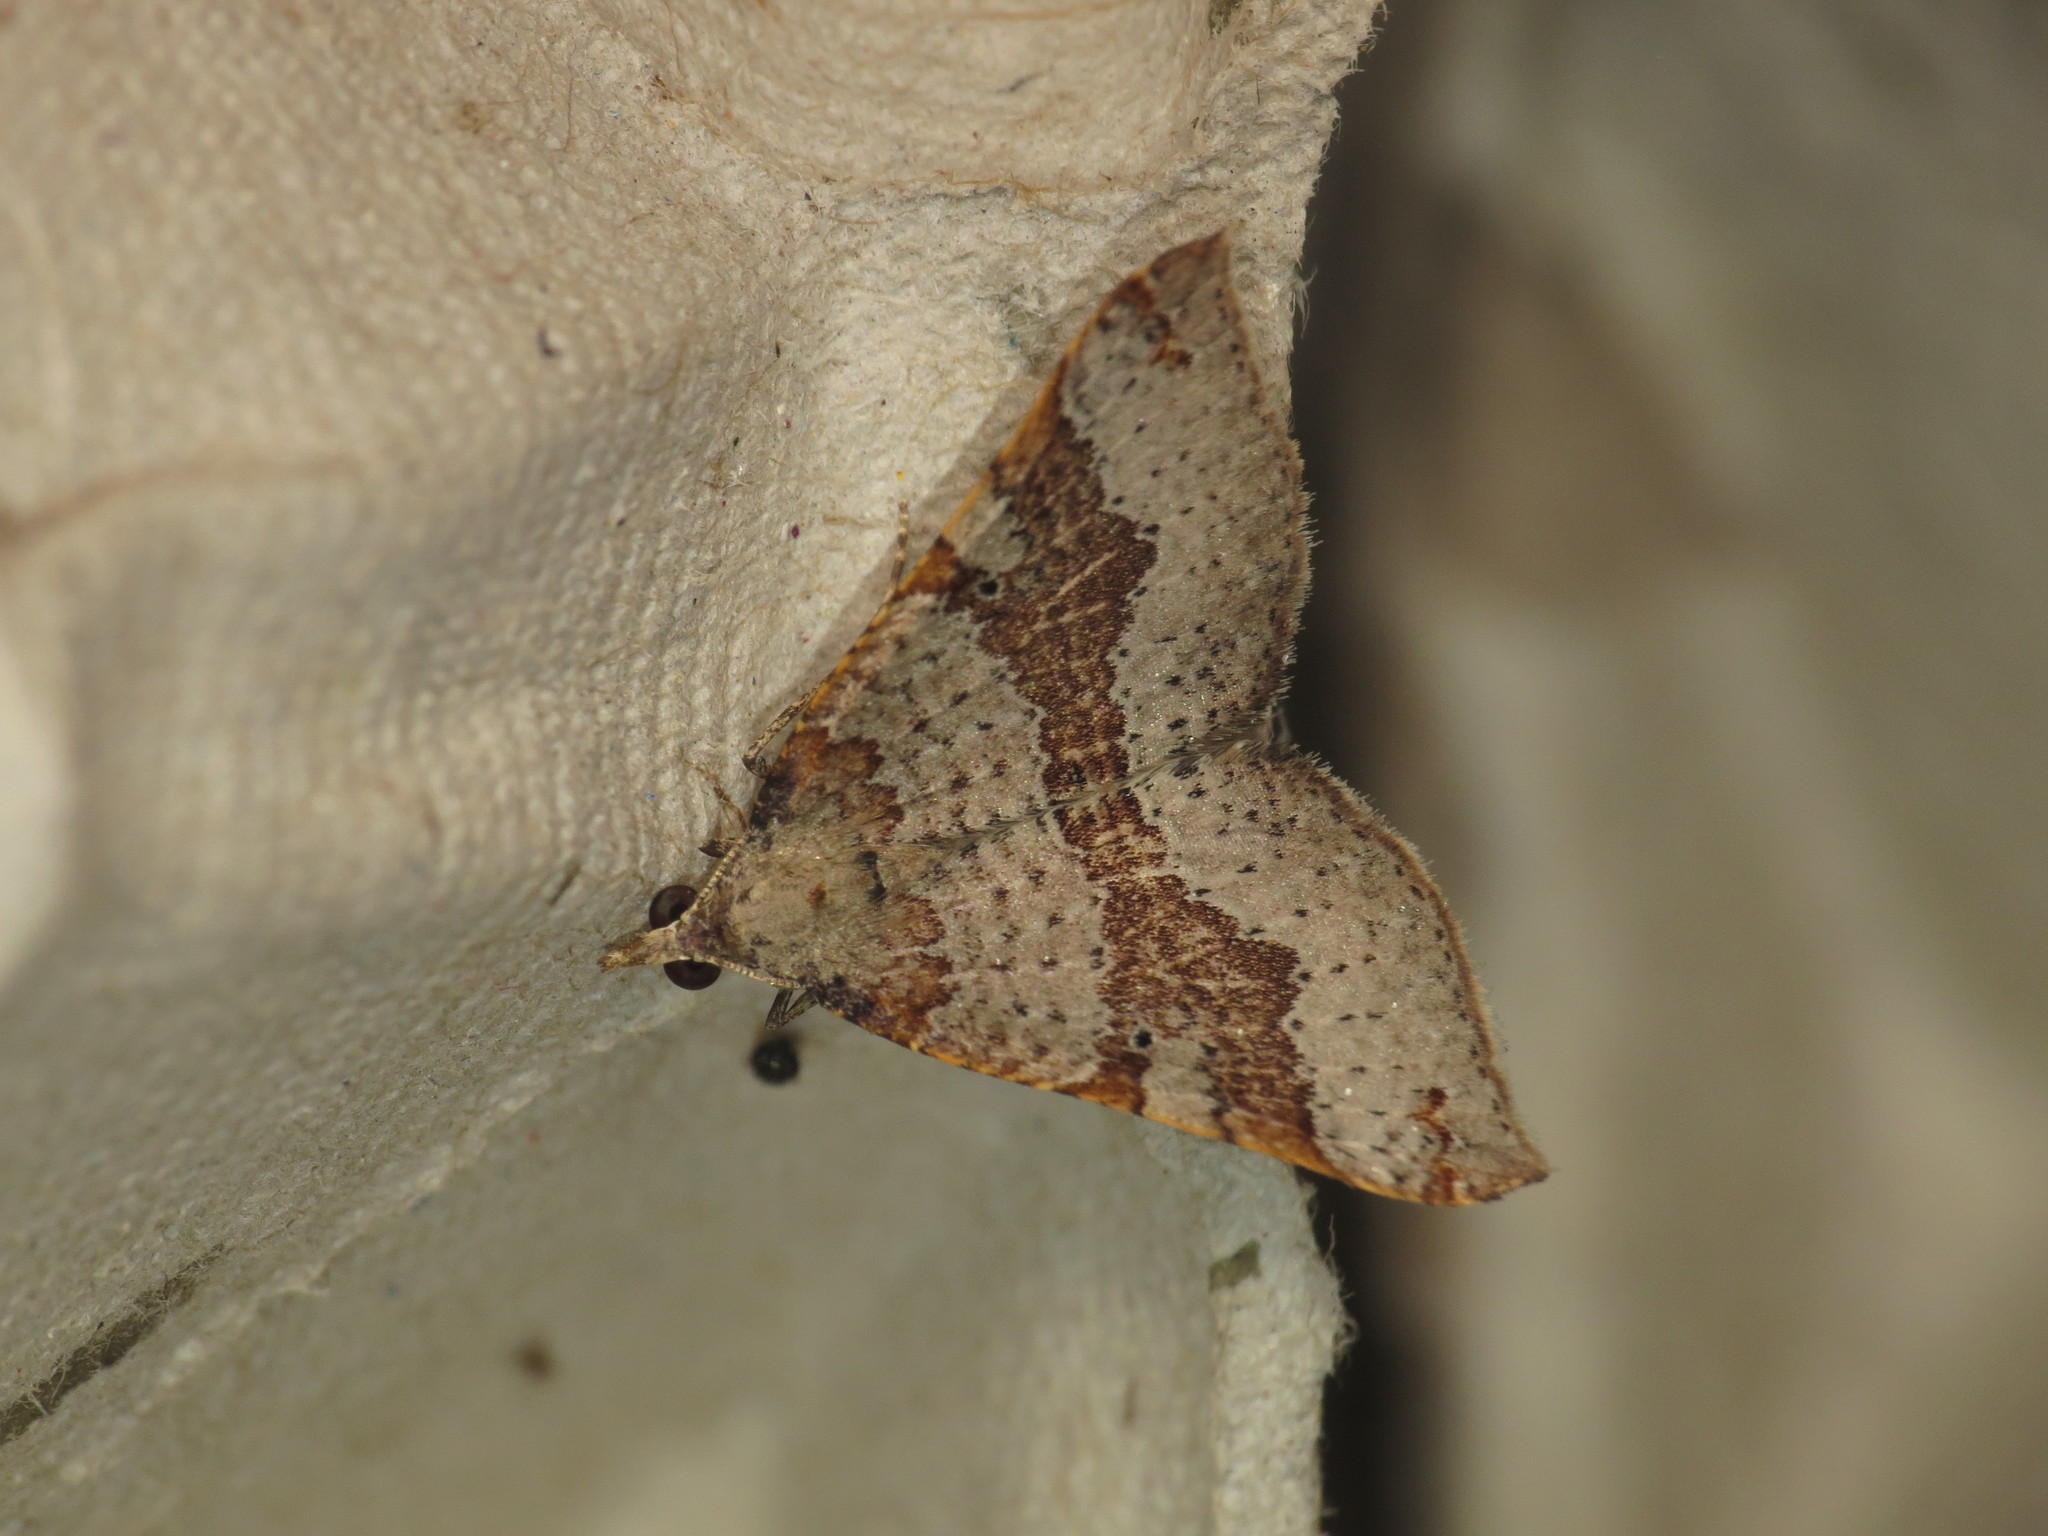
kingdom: Animalia
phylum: Arthropoda
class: Insecta
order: Lepidoptera
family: Geometridae
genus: Anachloris
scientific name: Anachloris uncinata
